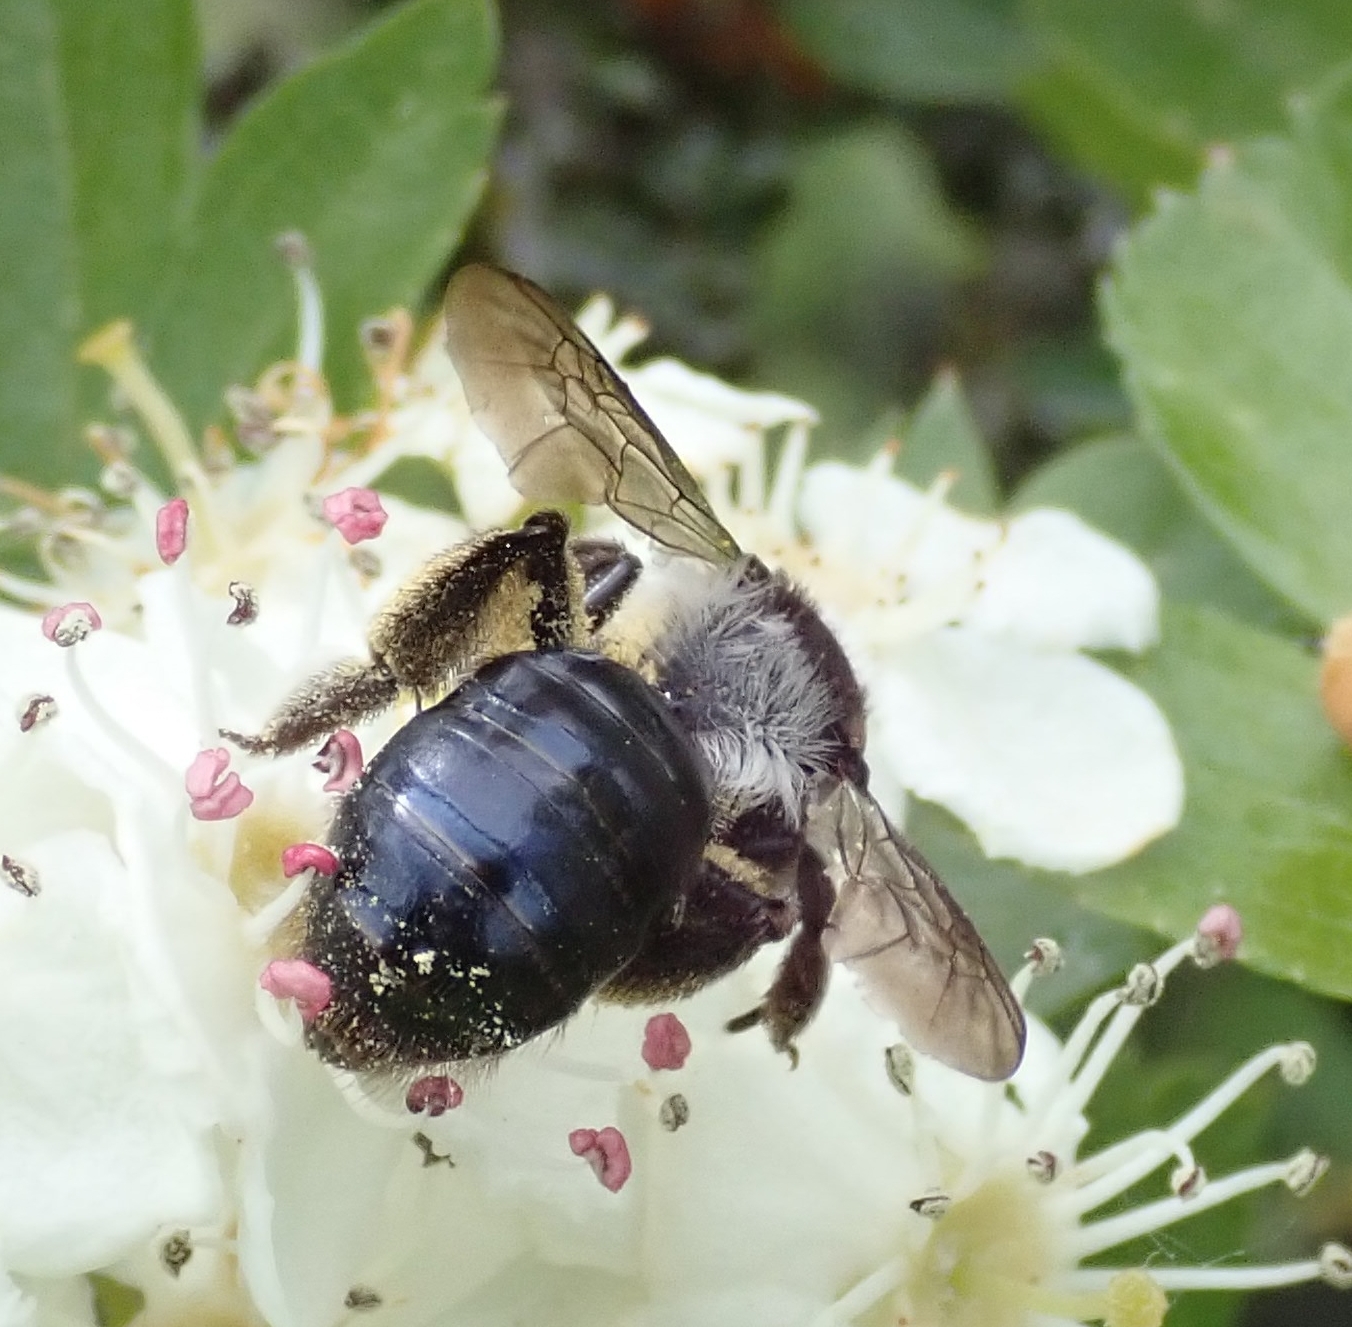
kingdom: Animalia
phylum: Arthropoda
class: Insecta
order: Hymenoptera
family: Andrenidae
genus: Andrena
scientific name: Andrena cineraria
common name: Ashy mining bee
